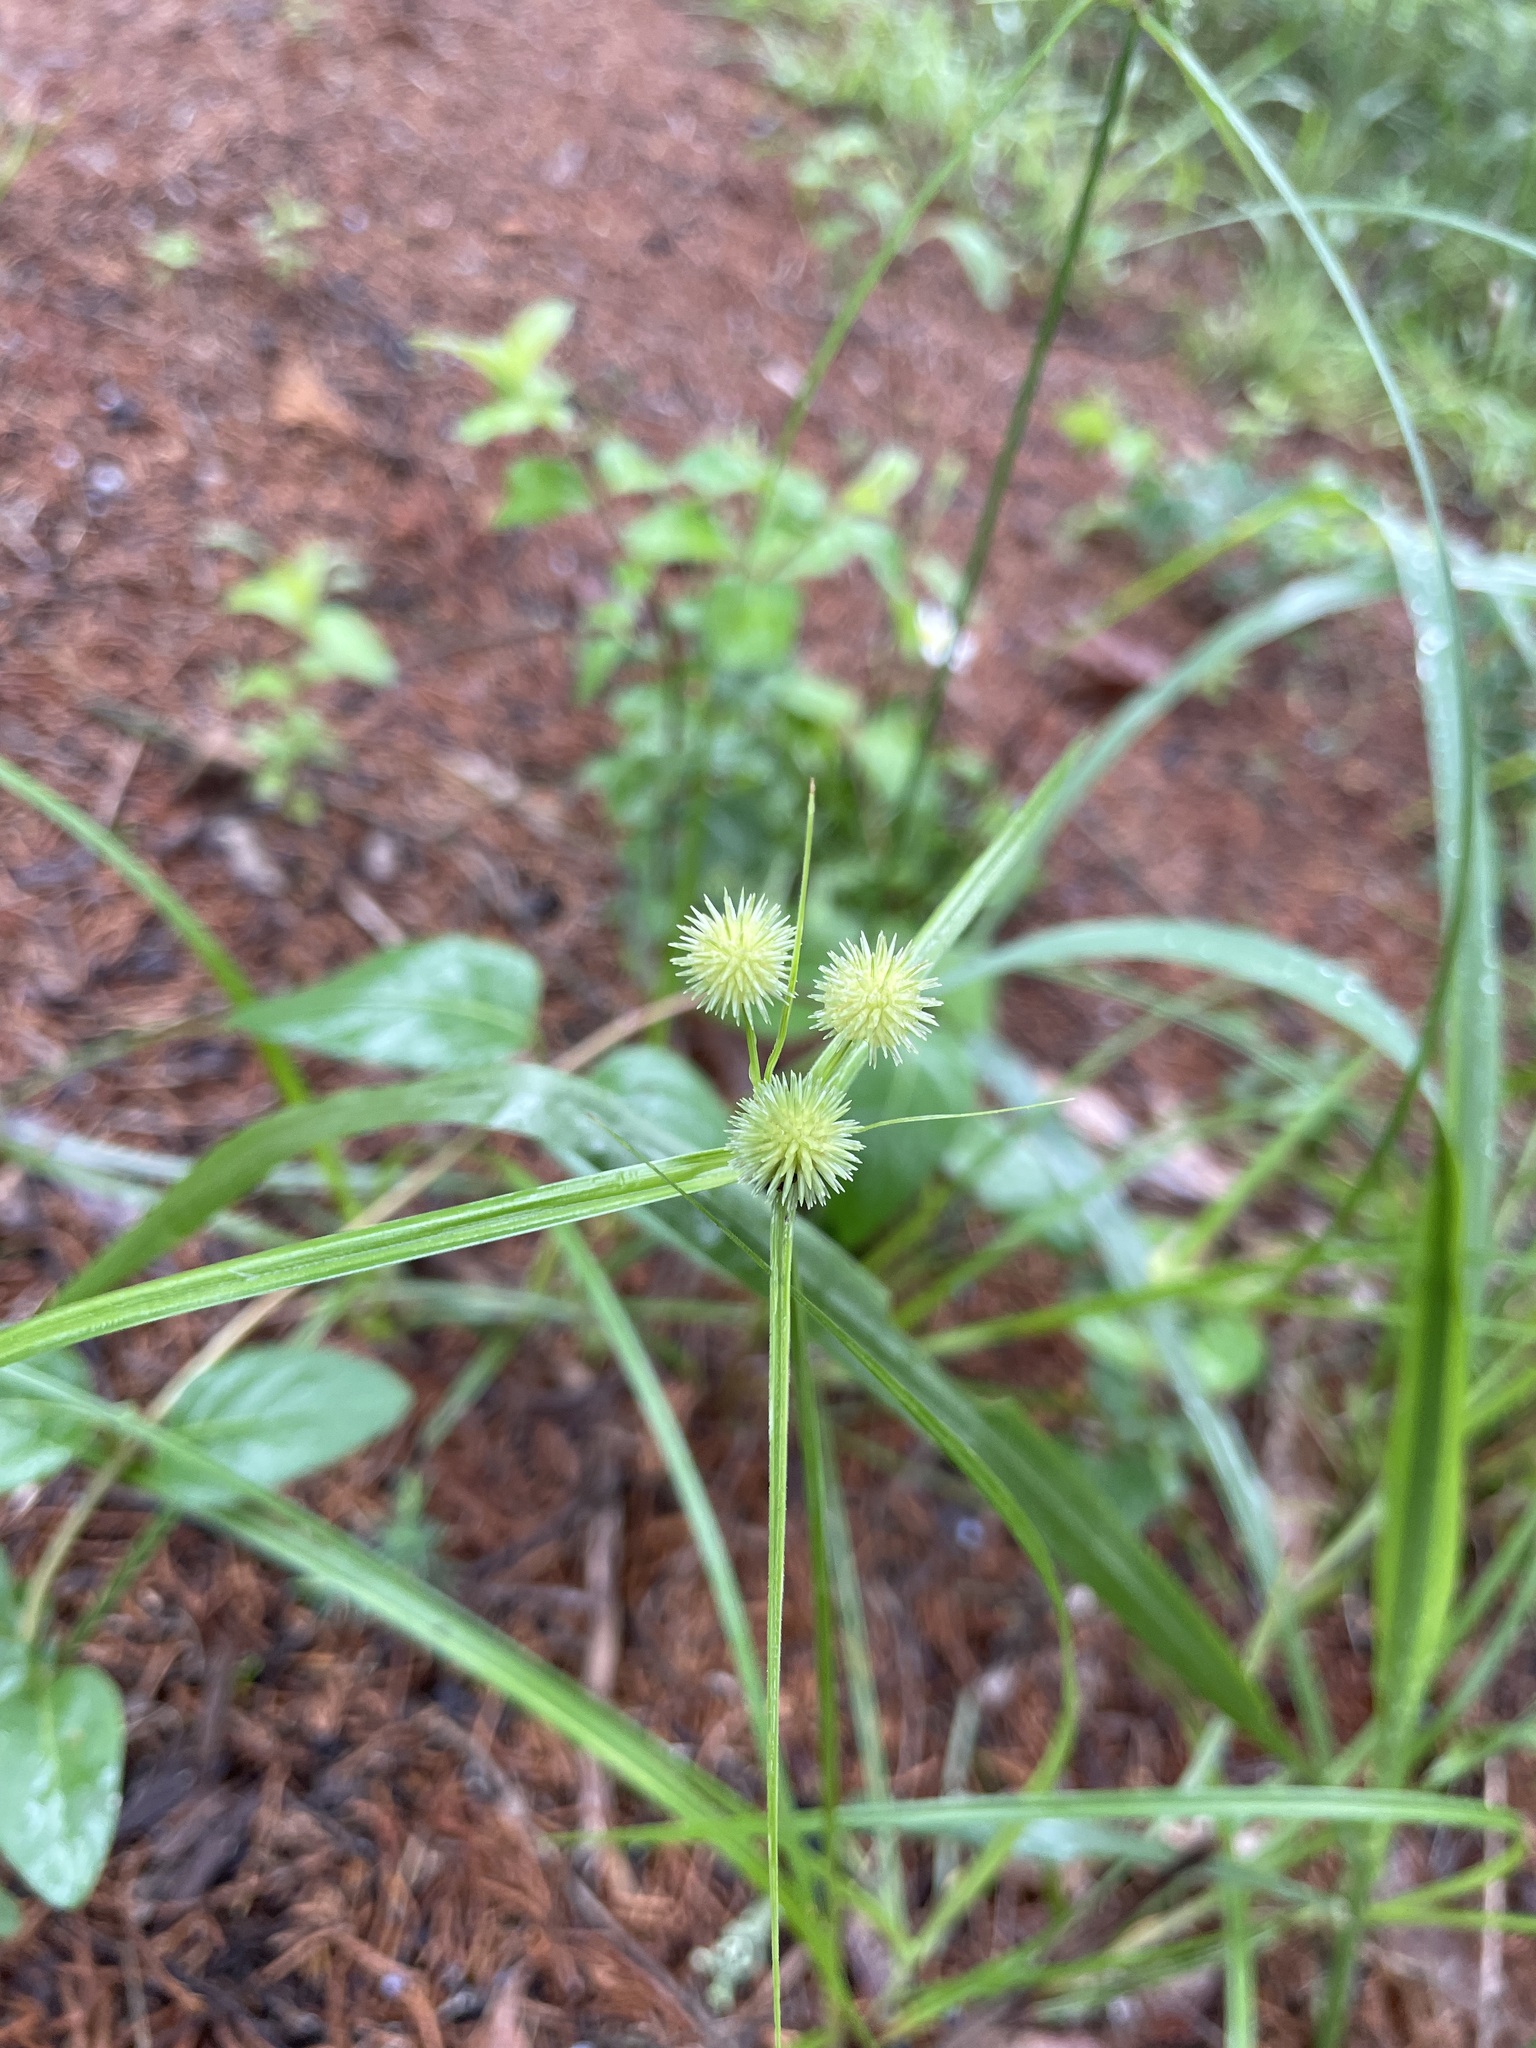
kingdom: Plantae
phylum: Tracheophyta
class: Liliopsida
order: Poales
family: Cyperaceae
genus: Cyperus
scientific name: Cyperus echinatus
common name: Teasel sedge
